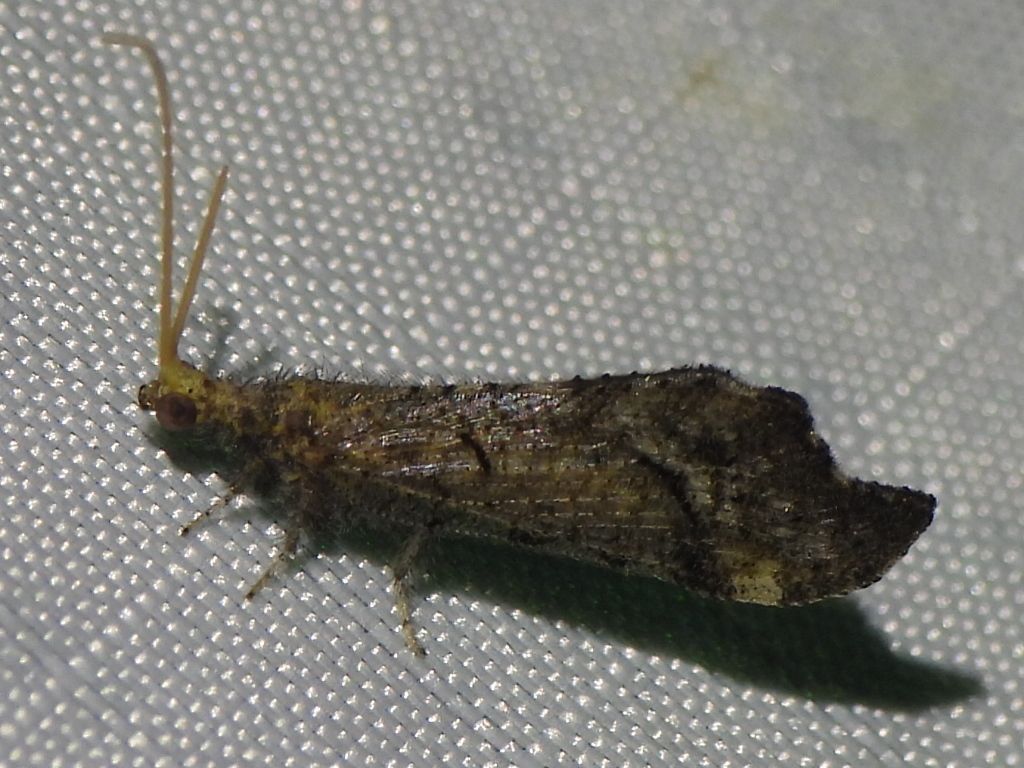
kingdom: Animalia
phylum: Arthropoda
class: Insecta
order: Neuroptera
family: Berothidae
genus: Lomamyia
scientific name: Lomamyia squamosa
